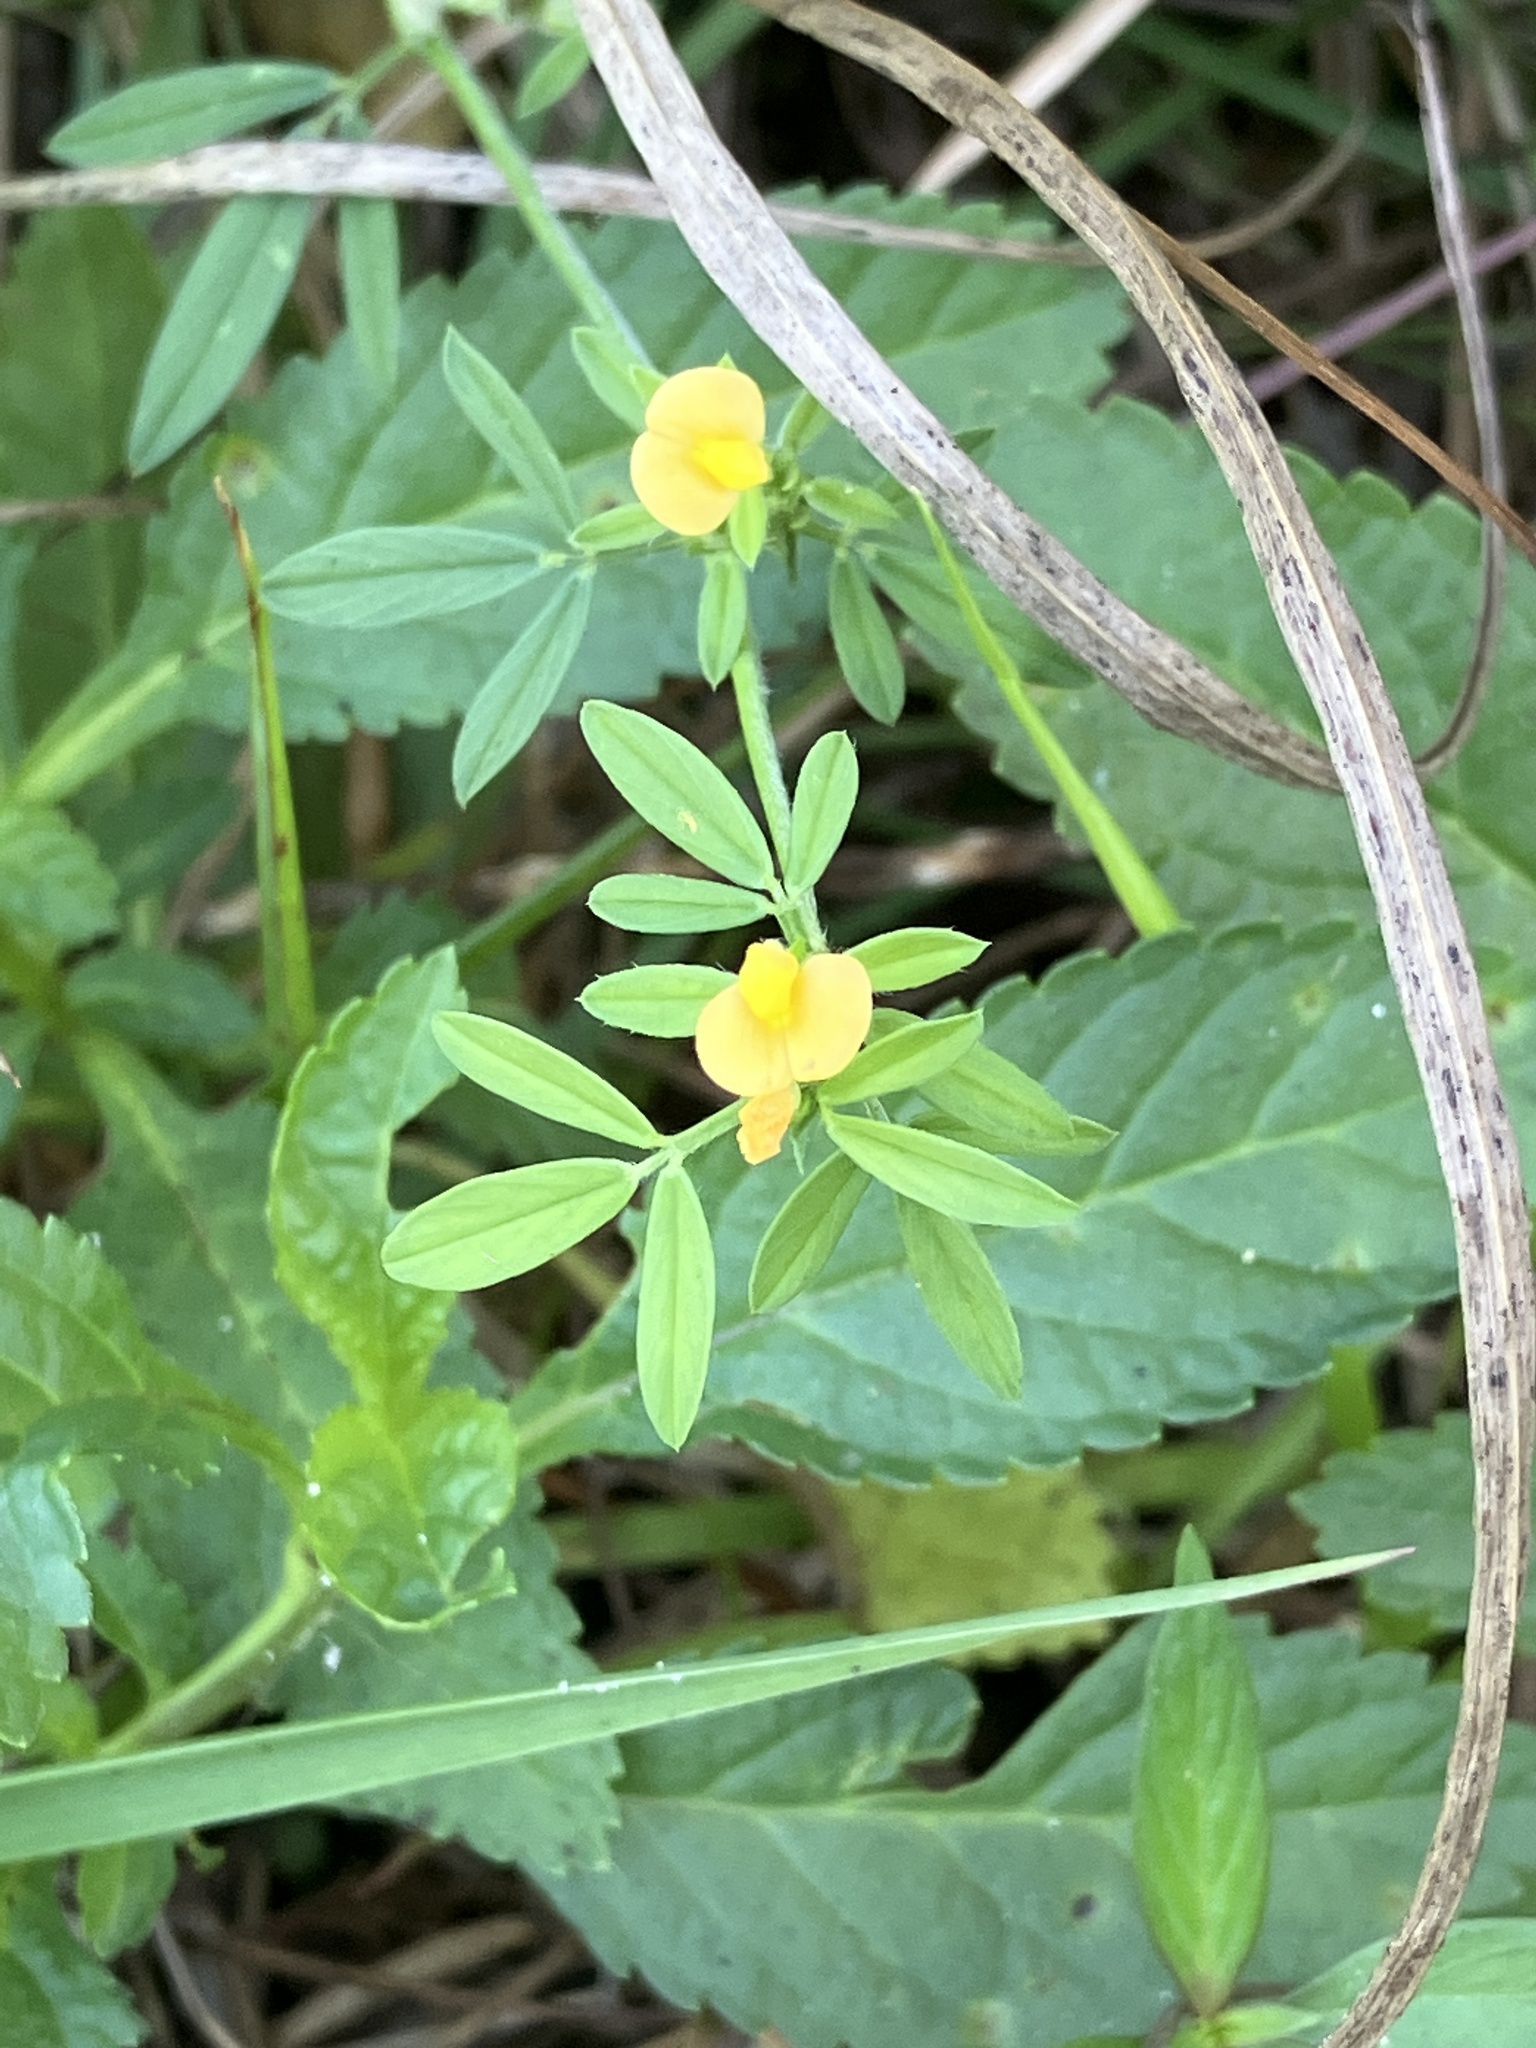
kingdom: Plantae
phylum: Tracheophyta
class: Magnoliopsida
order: Fabales
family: Fabaceae
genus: Stylosanthes
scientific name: Stylosanthes hamata
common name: Cheesytoes
